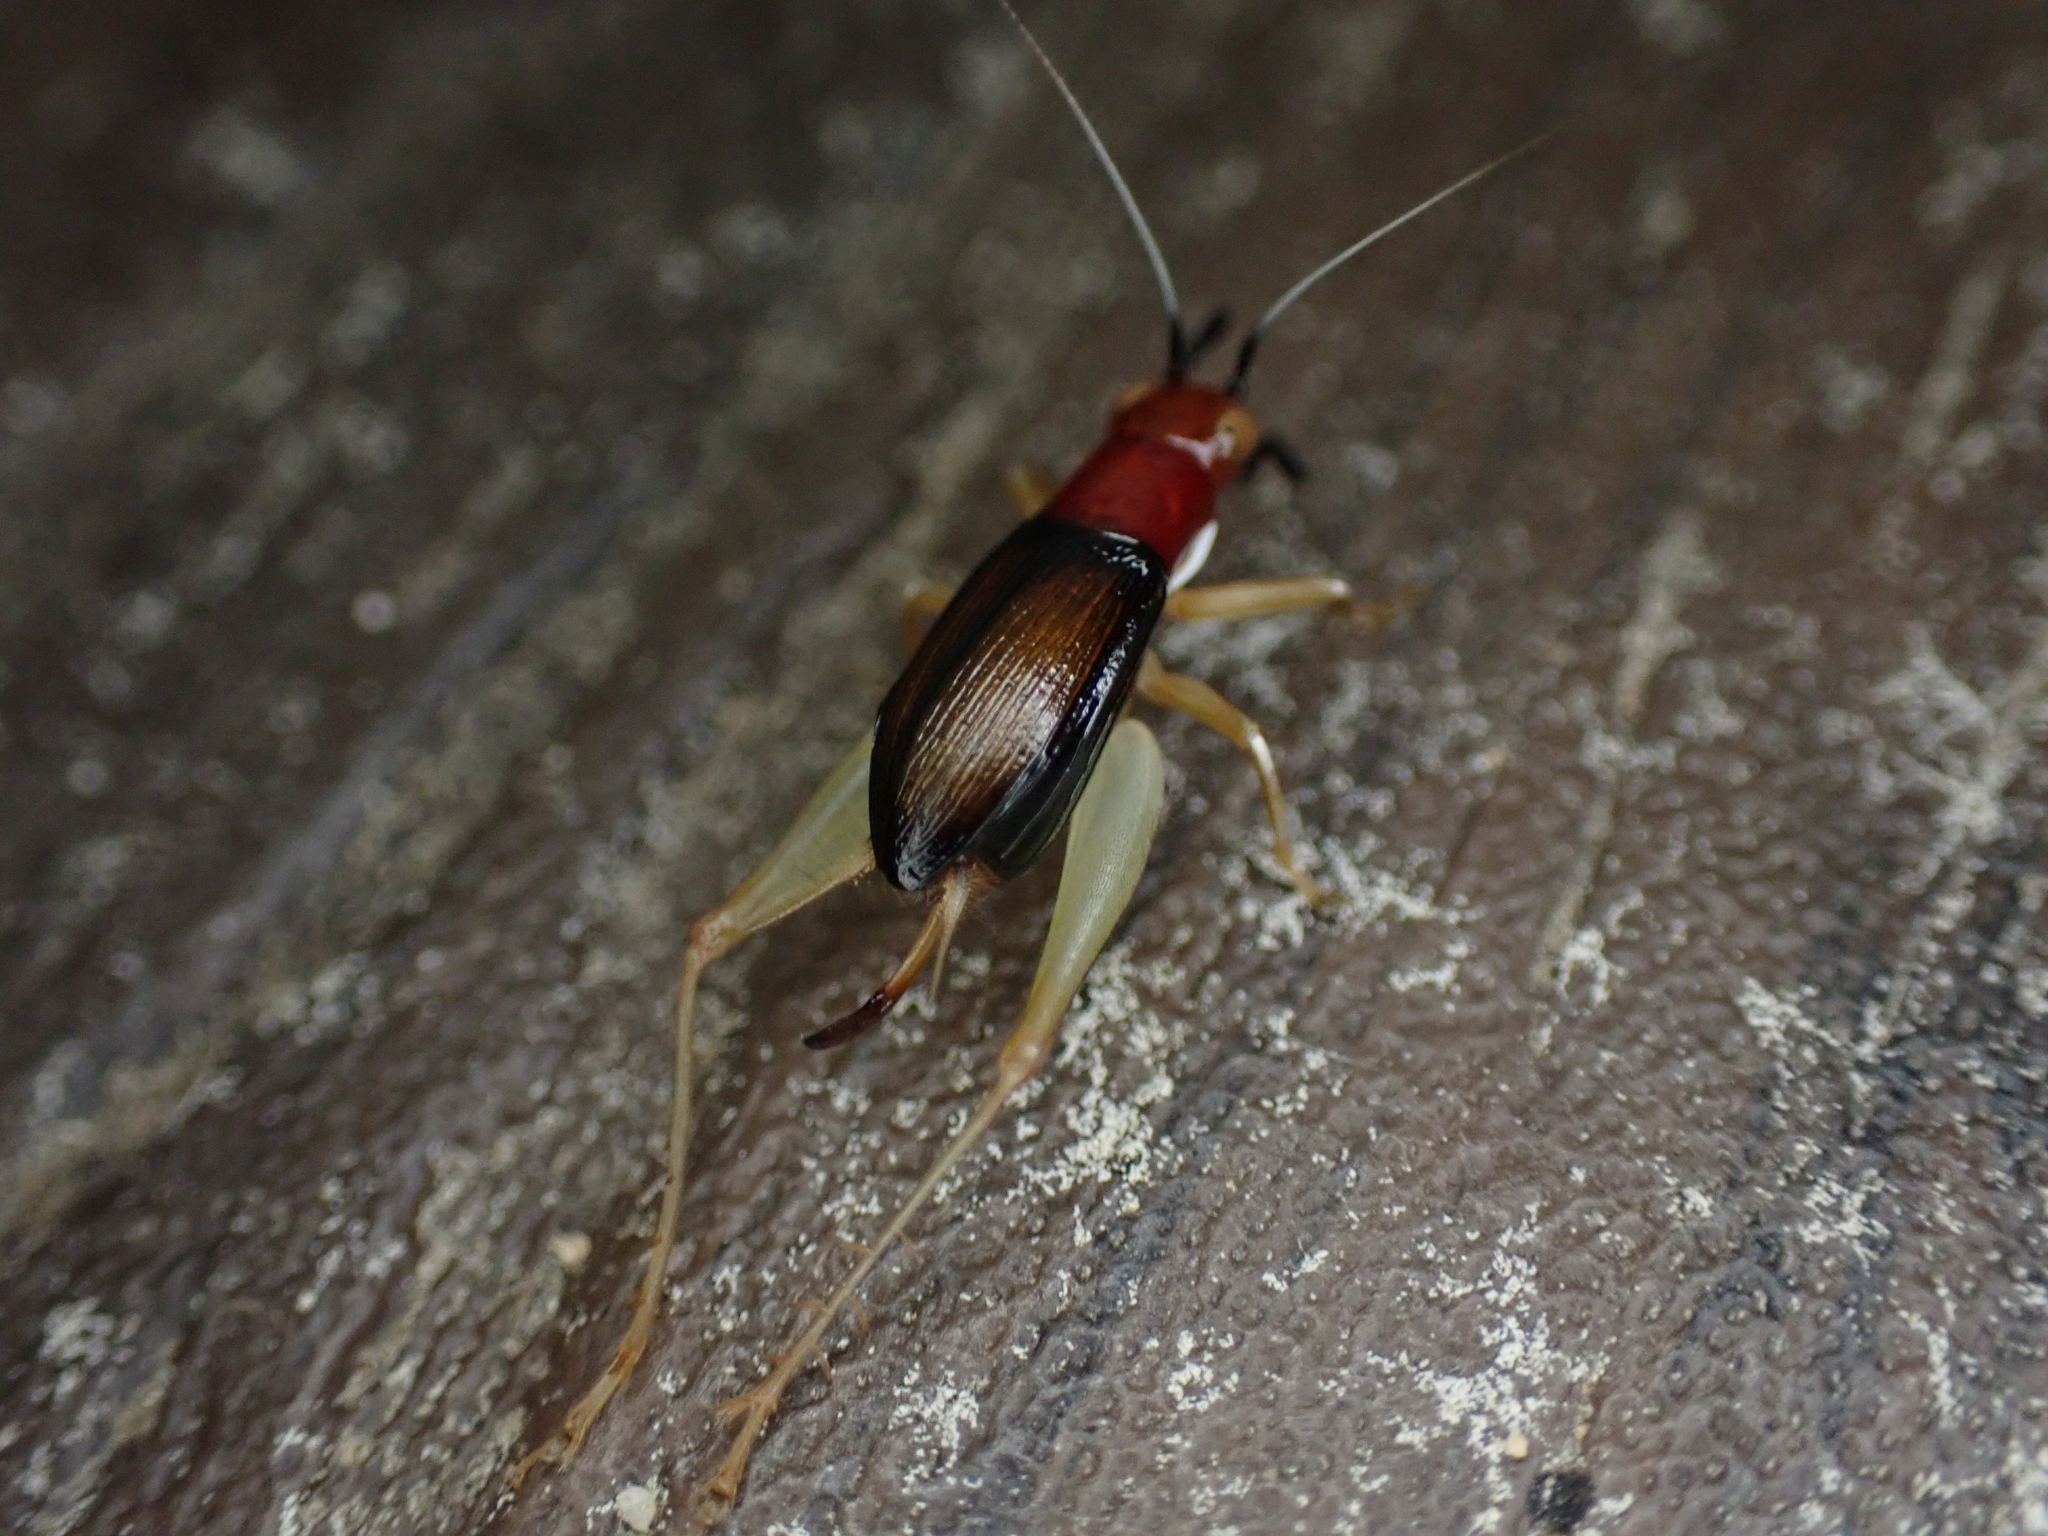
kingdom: Animalia
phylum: Arthropoda
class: Insecta
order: Orthoptera
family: Trigonidiidae
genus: Phyllopalpus
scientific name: Phyllopalpus pulchellus
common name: Handsome trig
